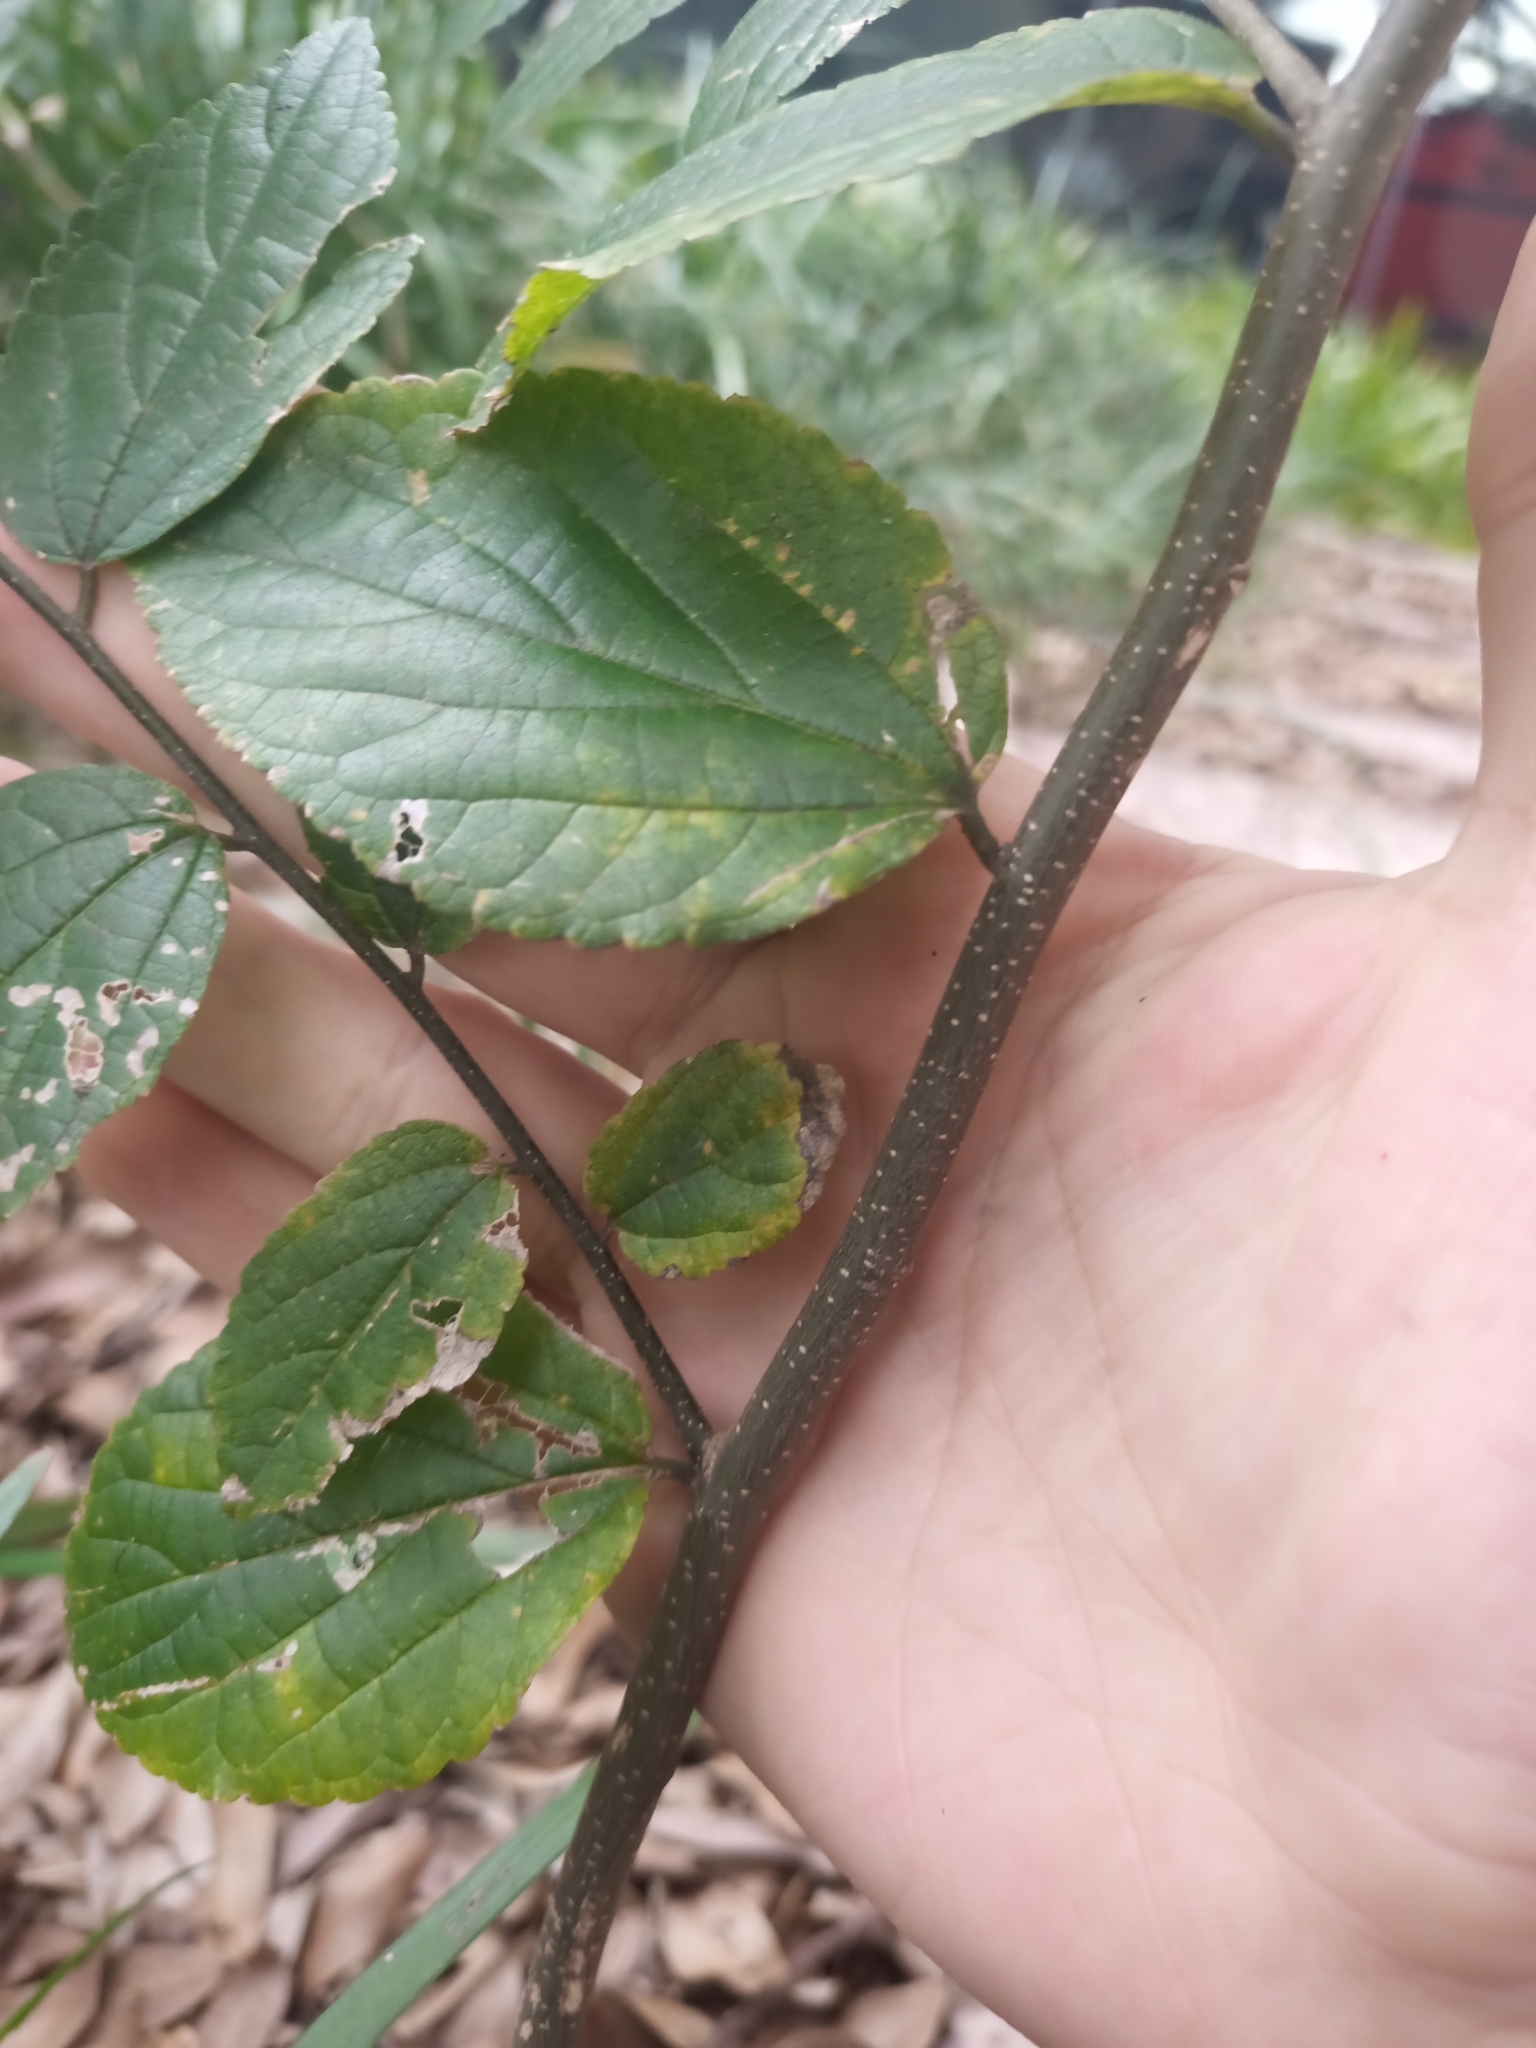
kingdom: Plantae
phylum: Tracheophyta
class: Magnoliopsida
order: Rosales
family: Cannabaceae
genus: Celtis
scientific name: Celtis sinensis
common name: Chinese hackberry
